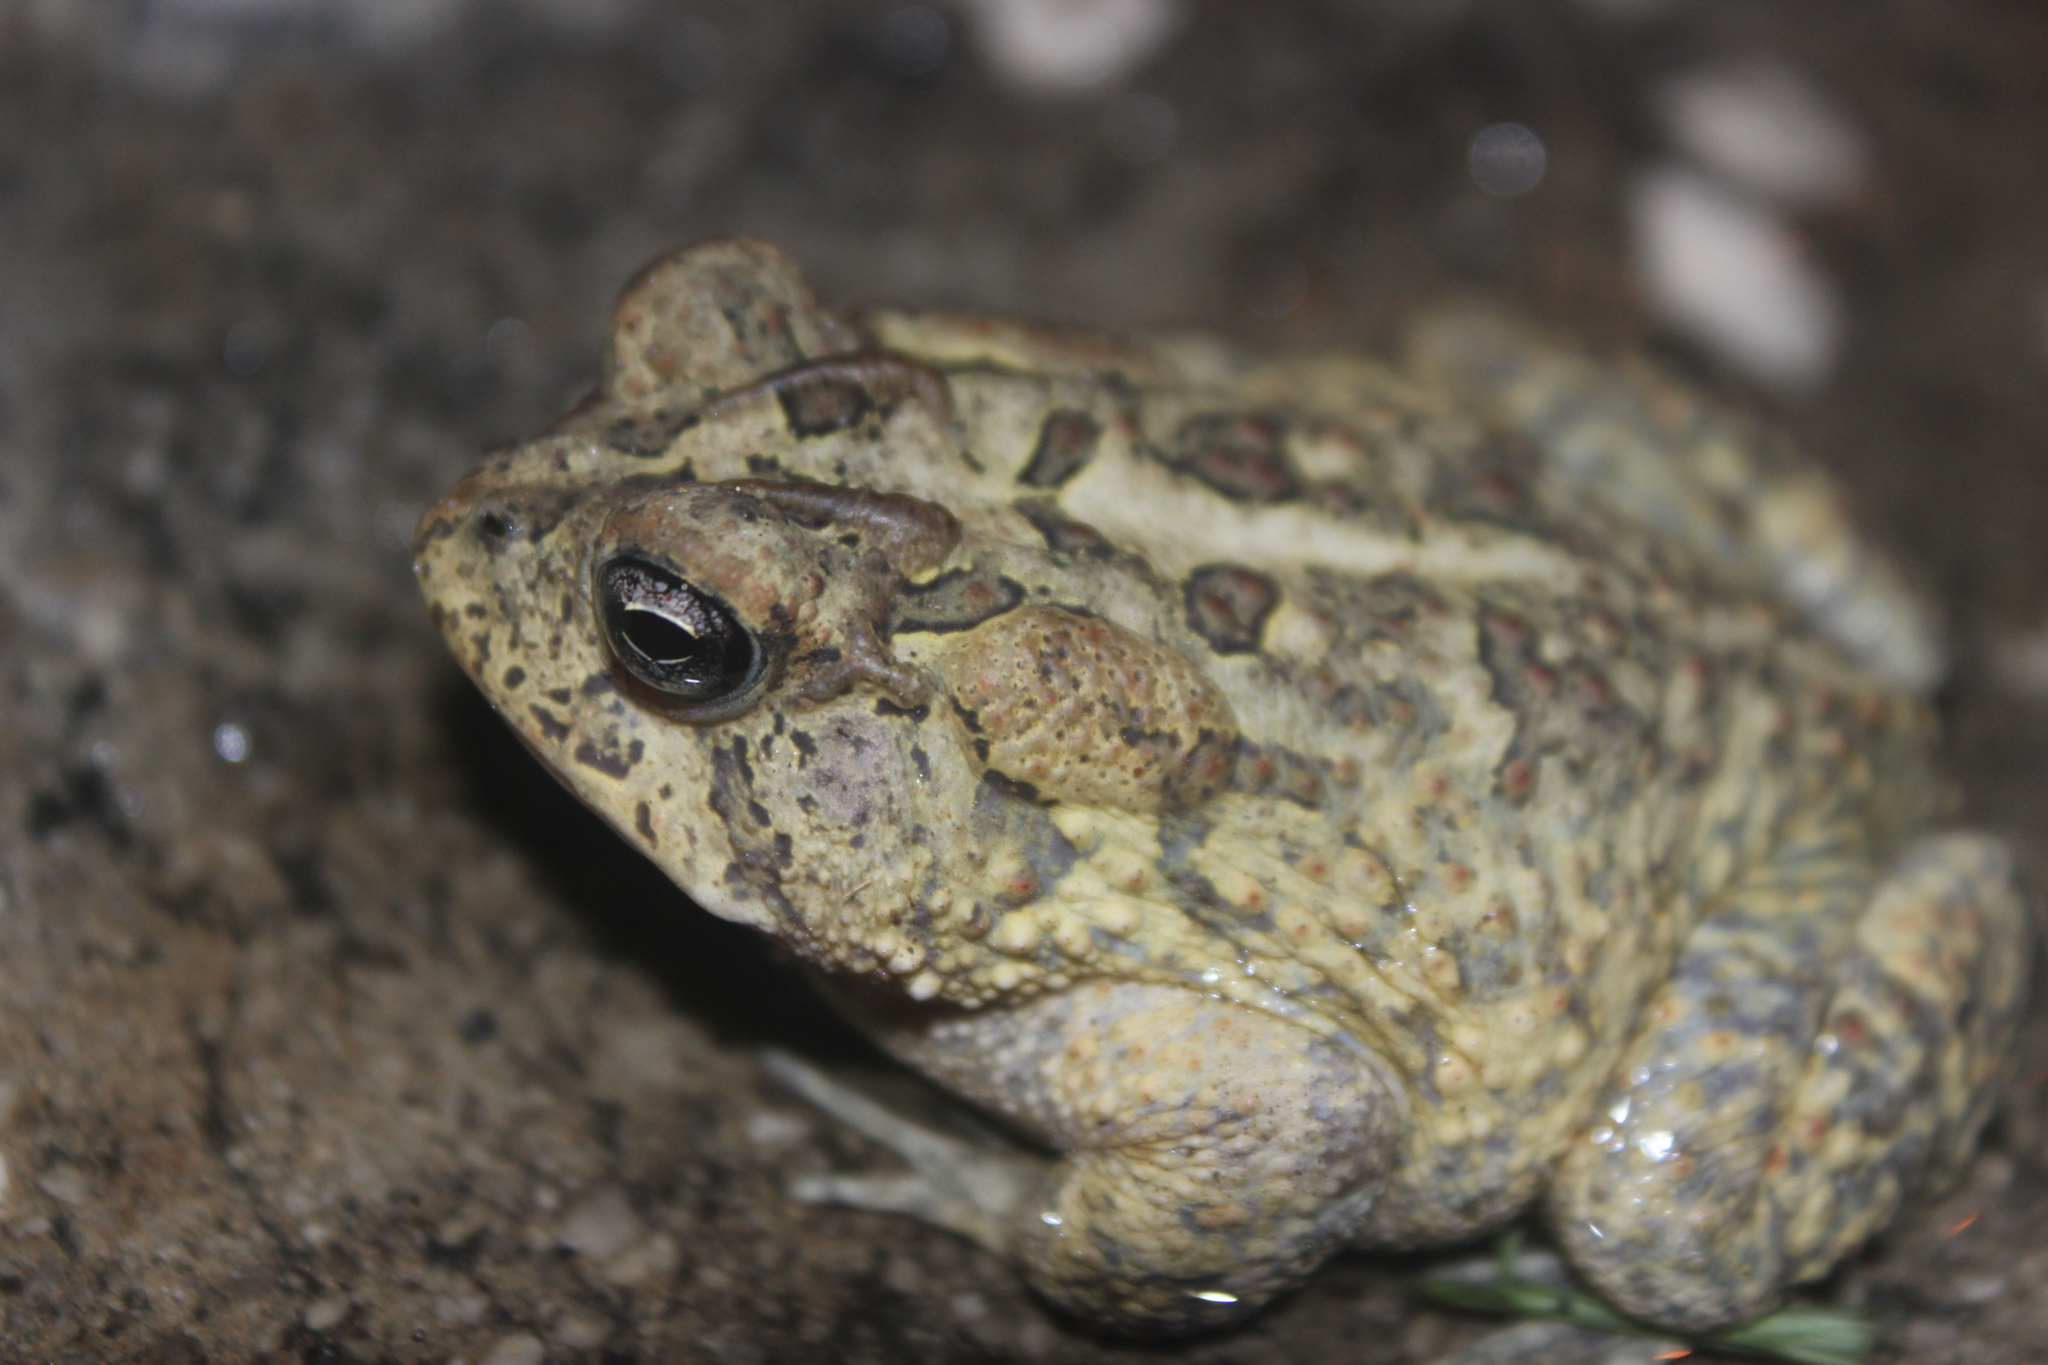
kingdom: Animalia
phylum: Chordata
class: Amphibia
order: Anura
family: Bufonidae
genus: Anaxyrus
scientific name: Anaxyrus terrestris
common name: Southern toad
